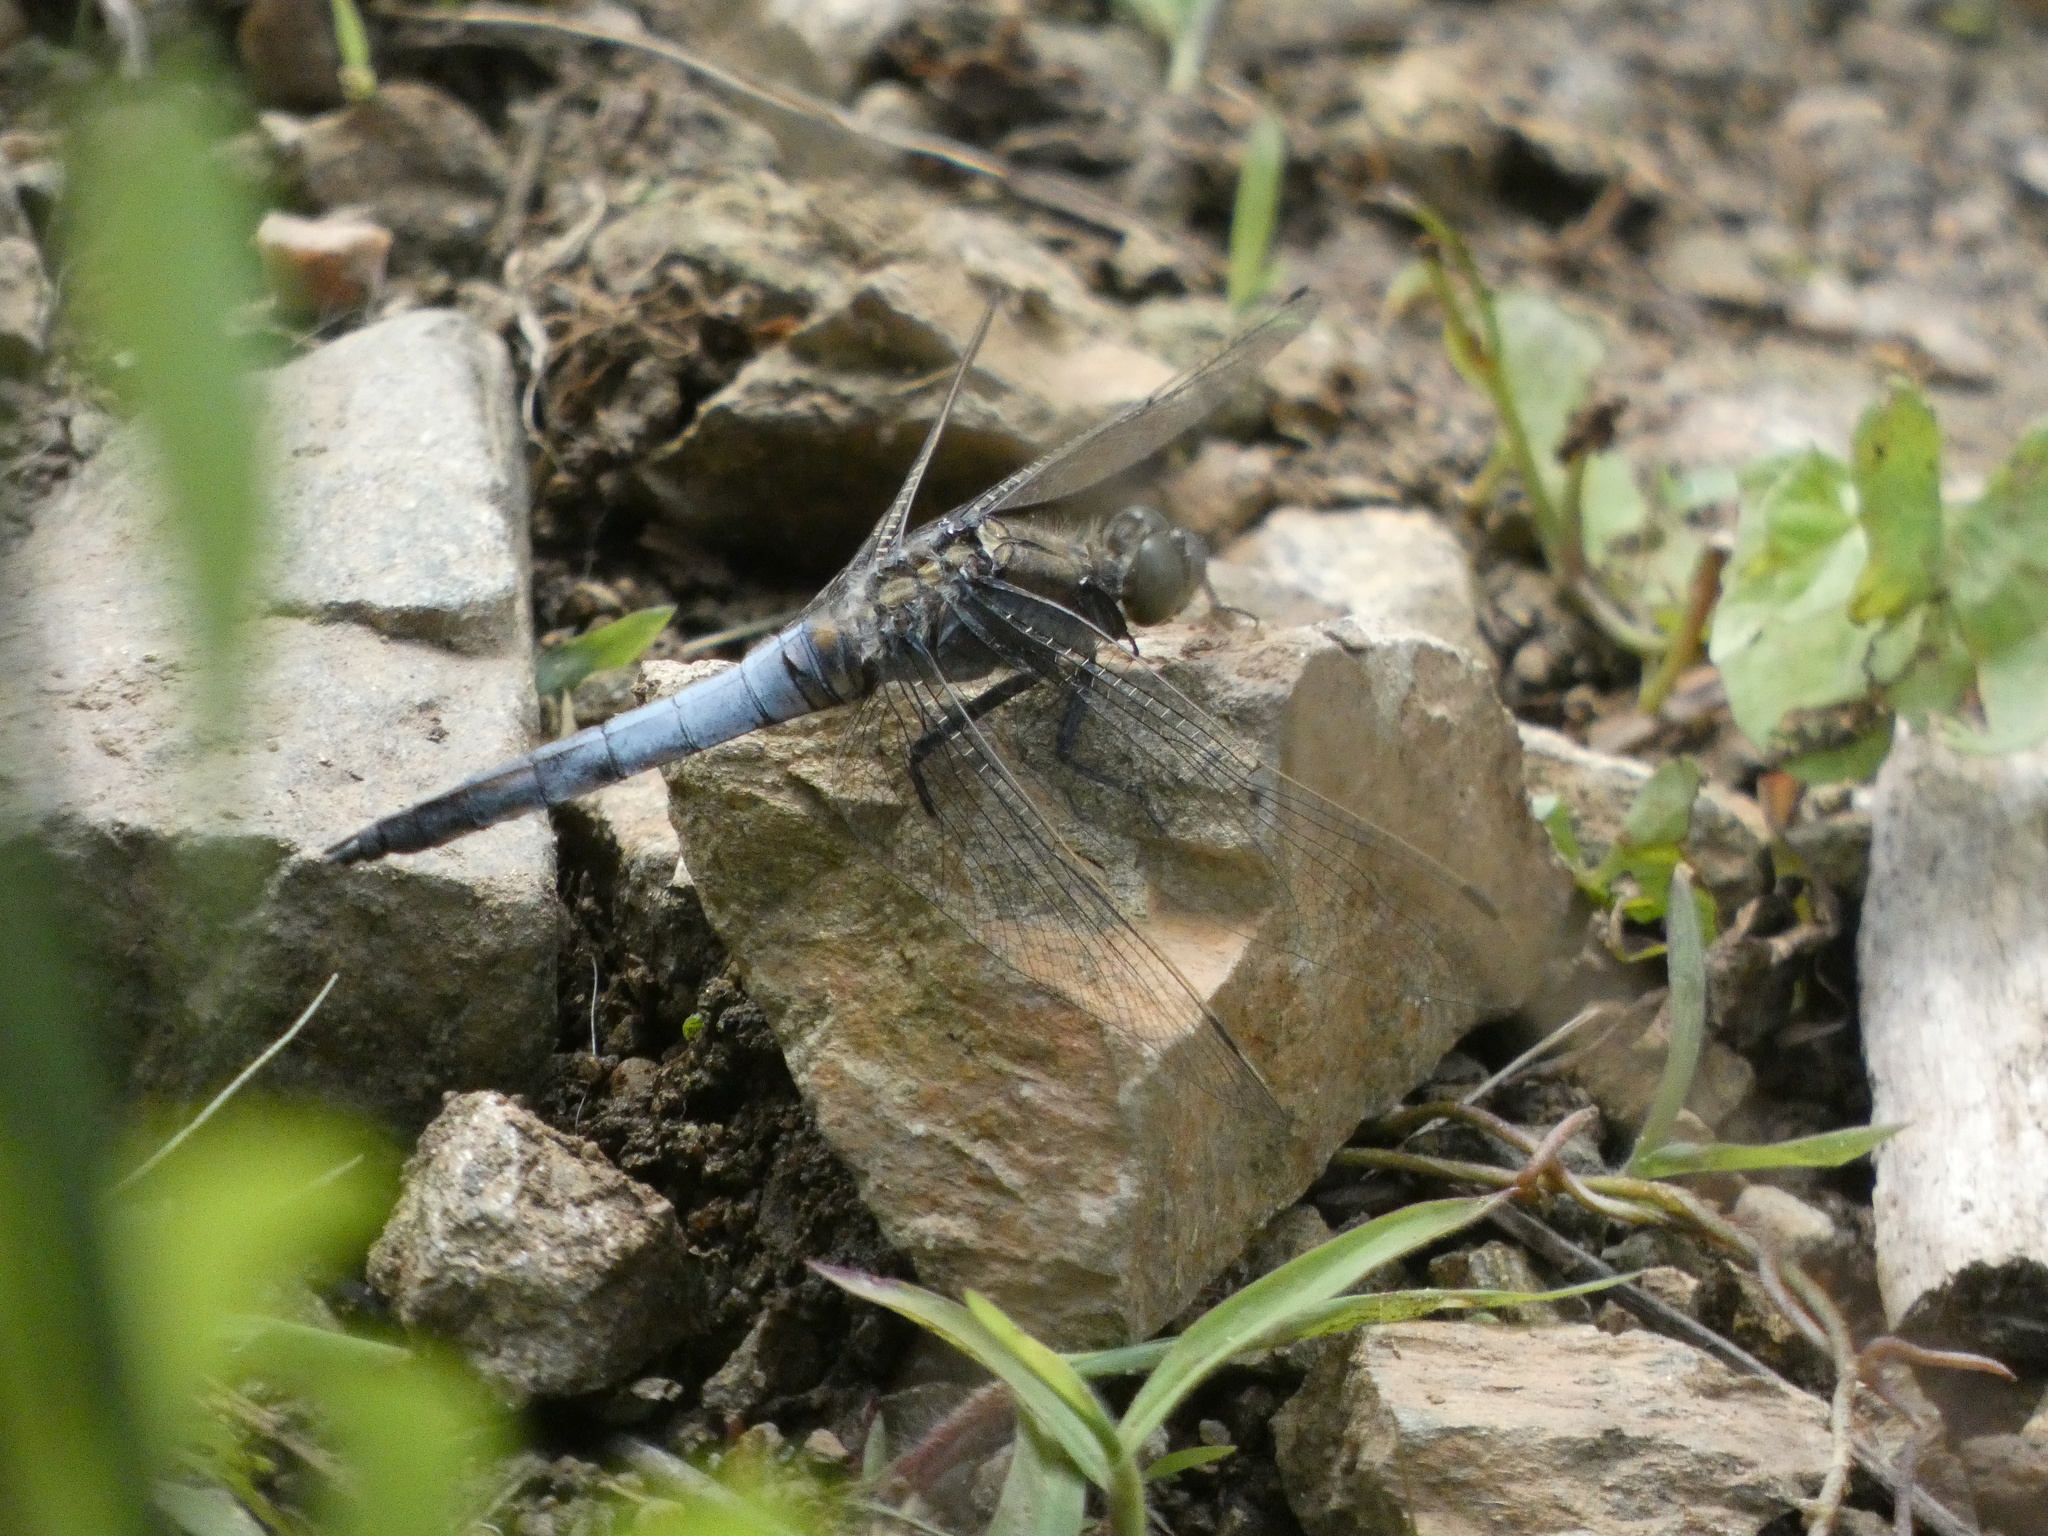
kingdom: Animalia
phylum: Arthropoda
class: Insecta
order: Odonata
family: Libellulidae
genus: Orthetrum
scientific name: Orthetrum cancellatum
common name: Black-tailed skimmer
